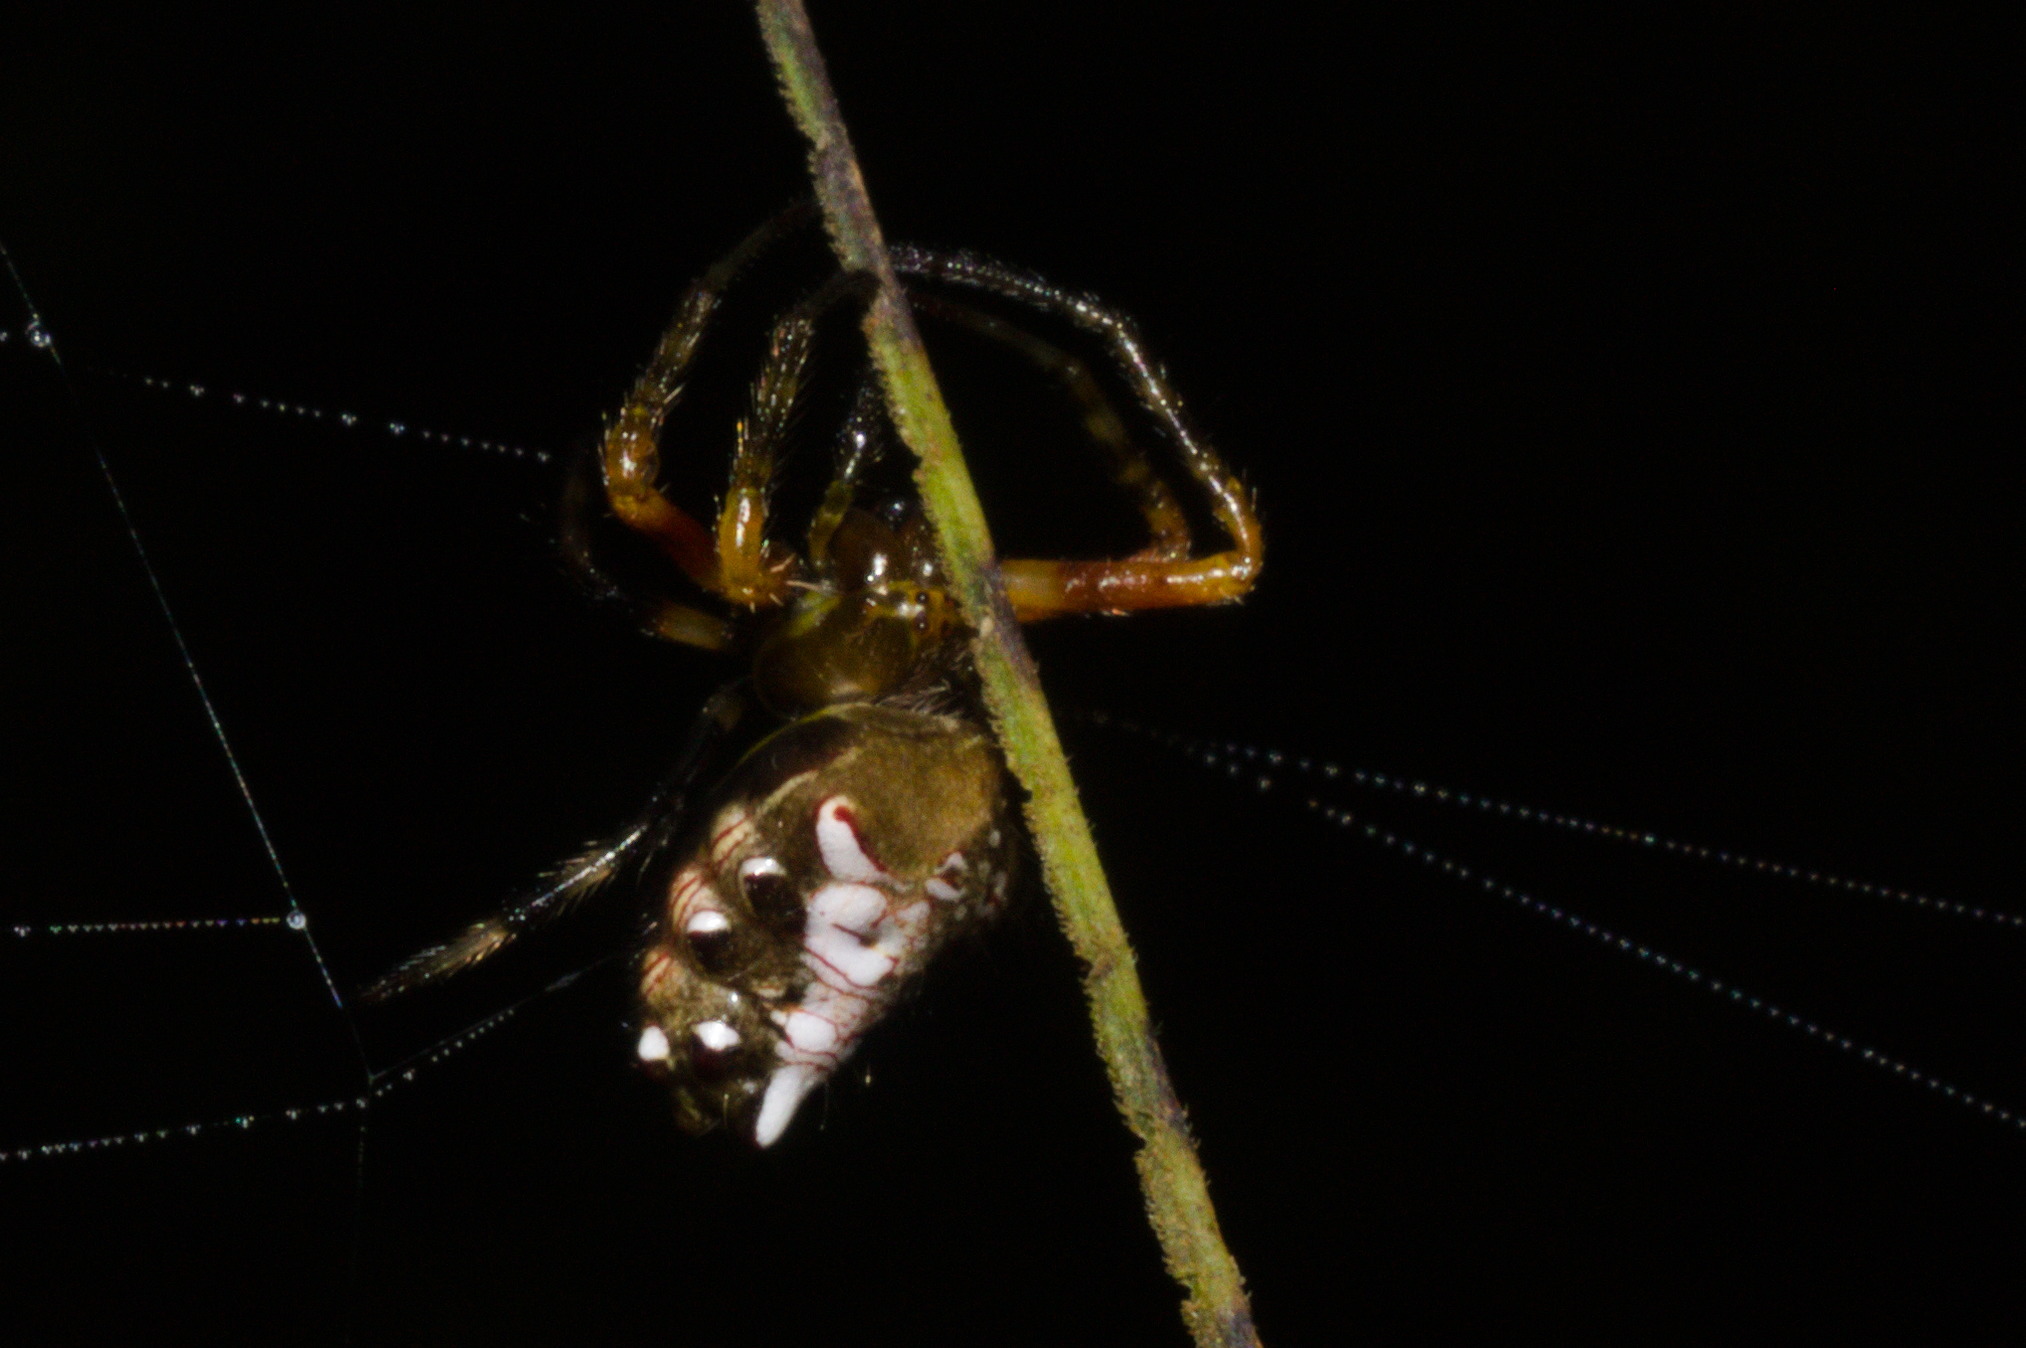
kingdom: Animalia
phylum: Arthropoda
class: Arachnida
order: Araneae
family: Araneidae
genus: Verrucosa
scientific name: Verrucosa meridionalis
